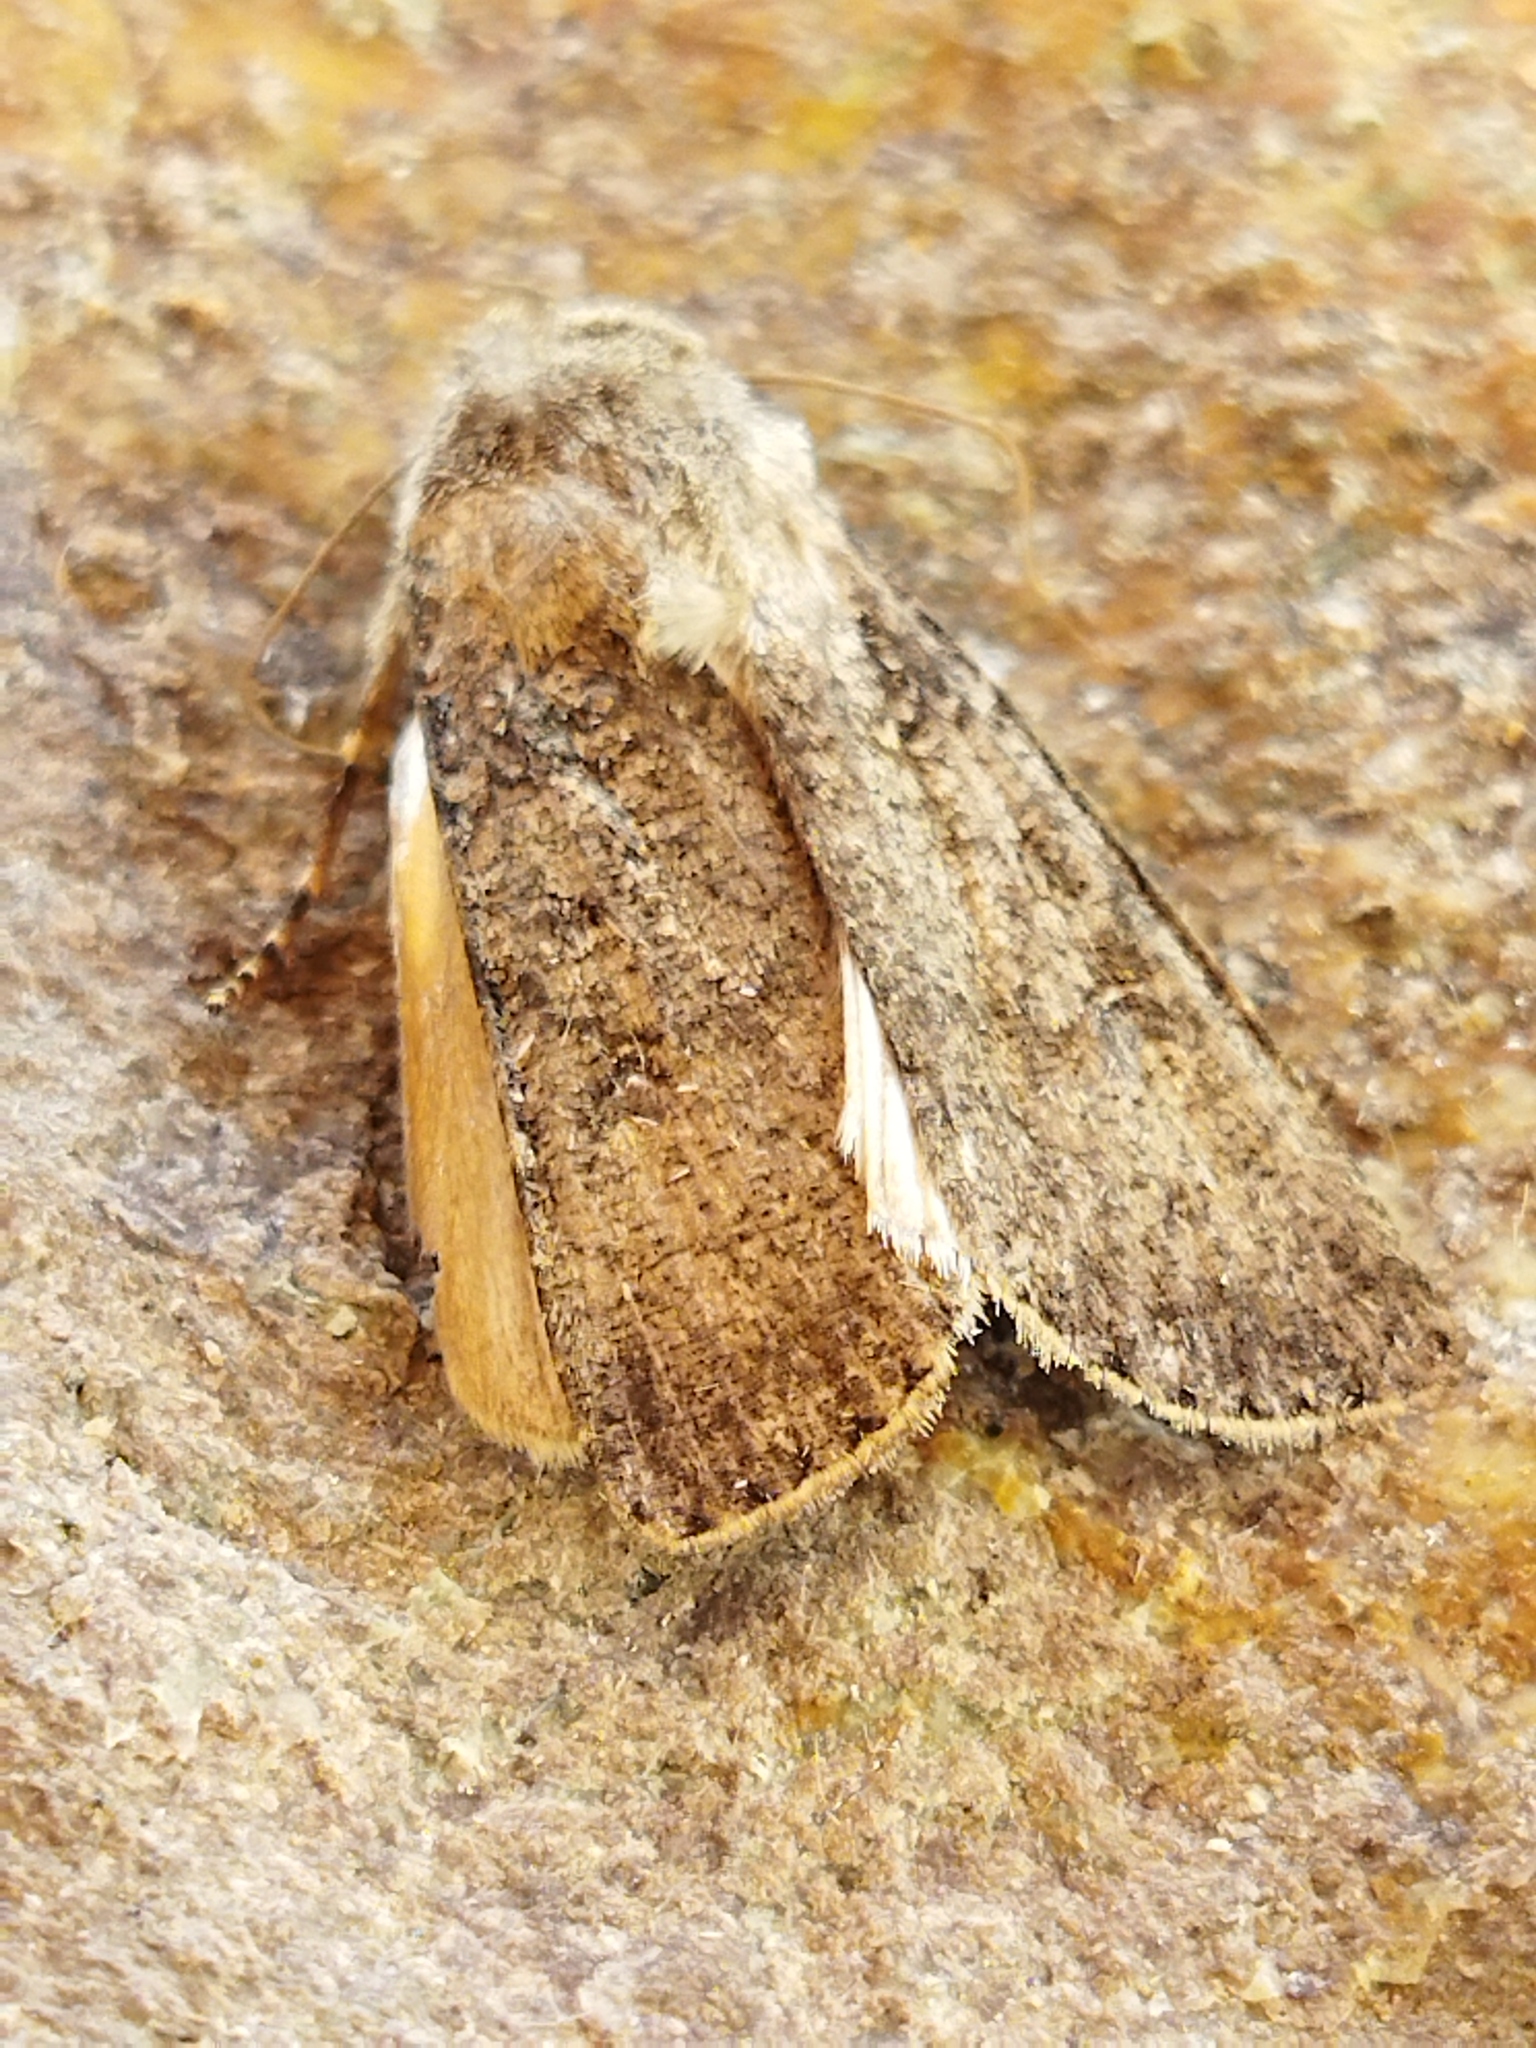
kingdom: Animalia
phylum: Arthropoda
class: Insecta
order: Lepidoptera
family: Noctuidae
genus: Agrotis
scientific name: Agrotis segetum
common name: Turnip moth
